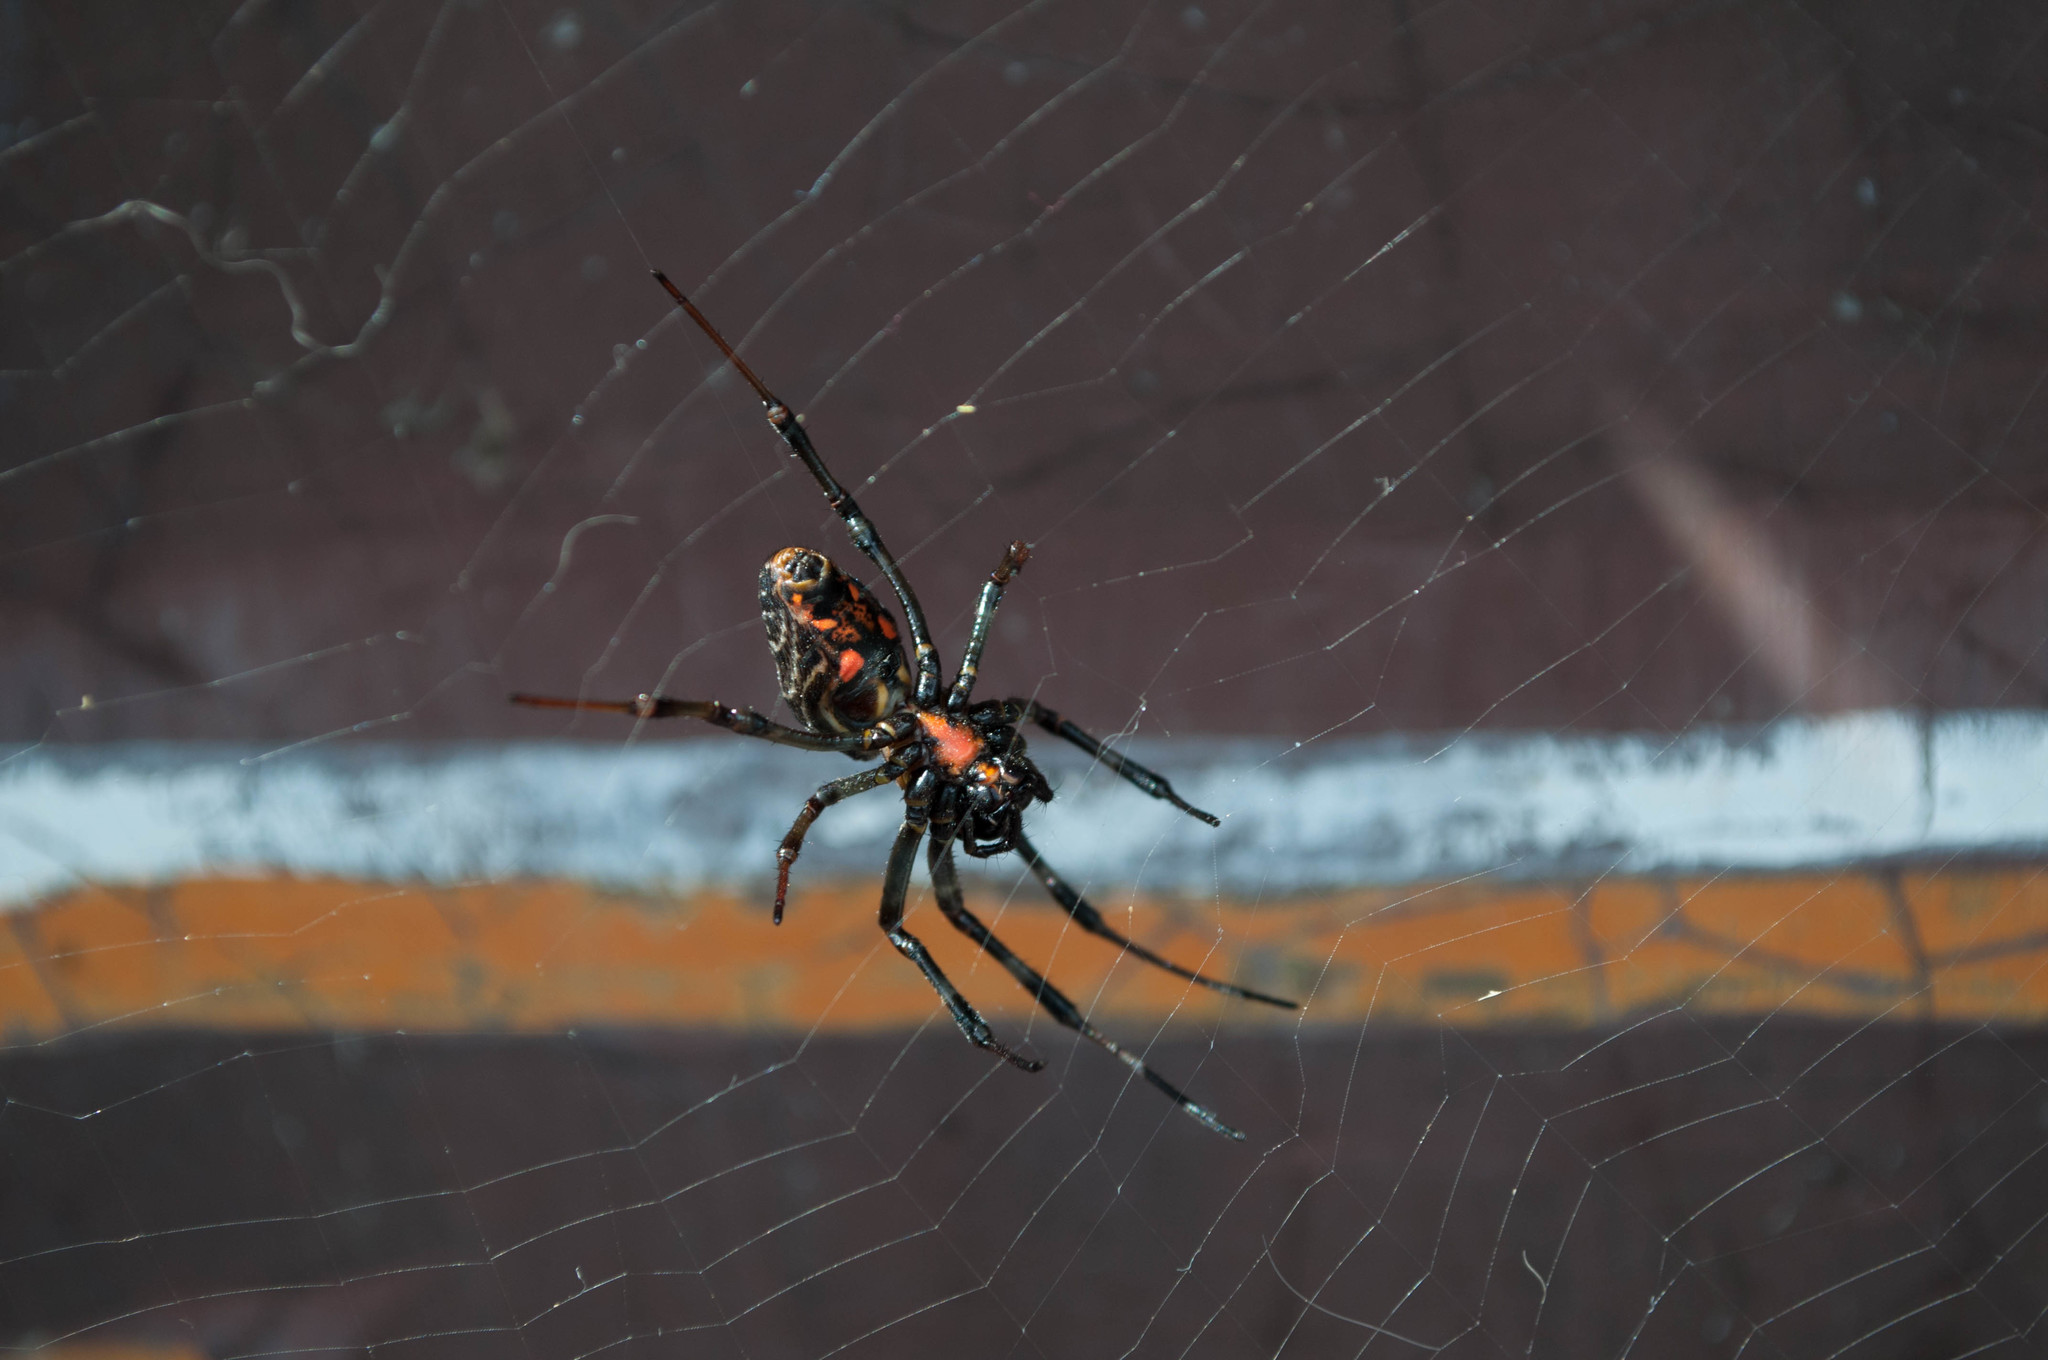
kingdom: Animalia
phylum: Arthropoda
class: Arachnida
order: Araneae
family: Araneidae
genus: Nephilengys
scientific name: Nephilengys malabarensis
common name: Asian hermit spider
